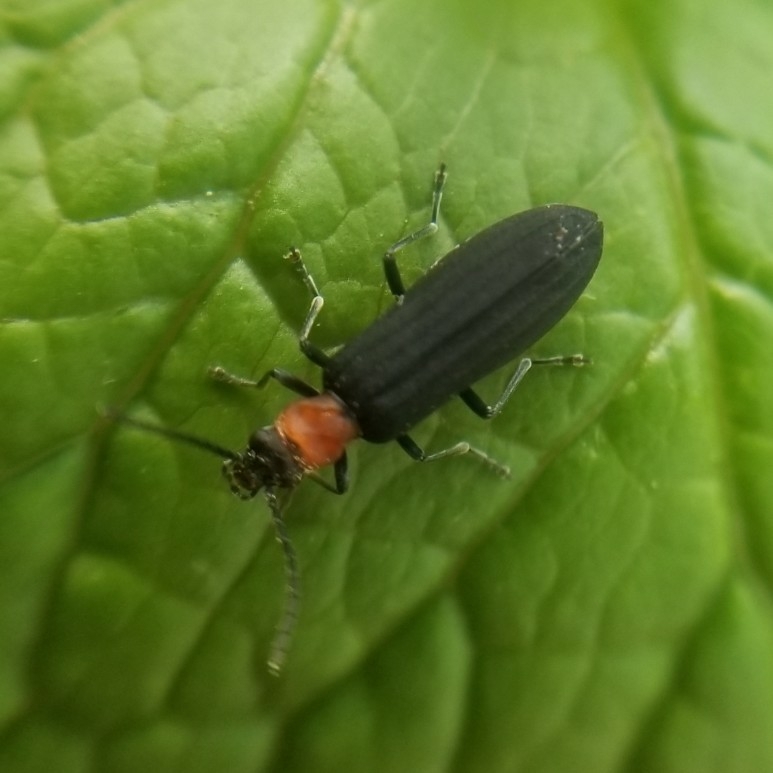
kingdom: Animalia
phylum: Arthropoda
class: Insecta
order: Coleoptera
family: Oedemeridae
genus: Ischnomera
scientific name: Ischnomera
